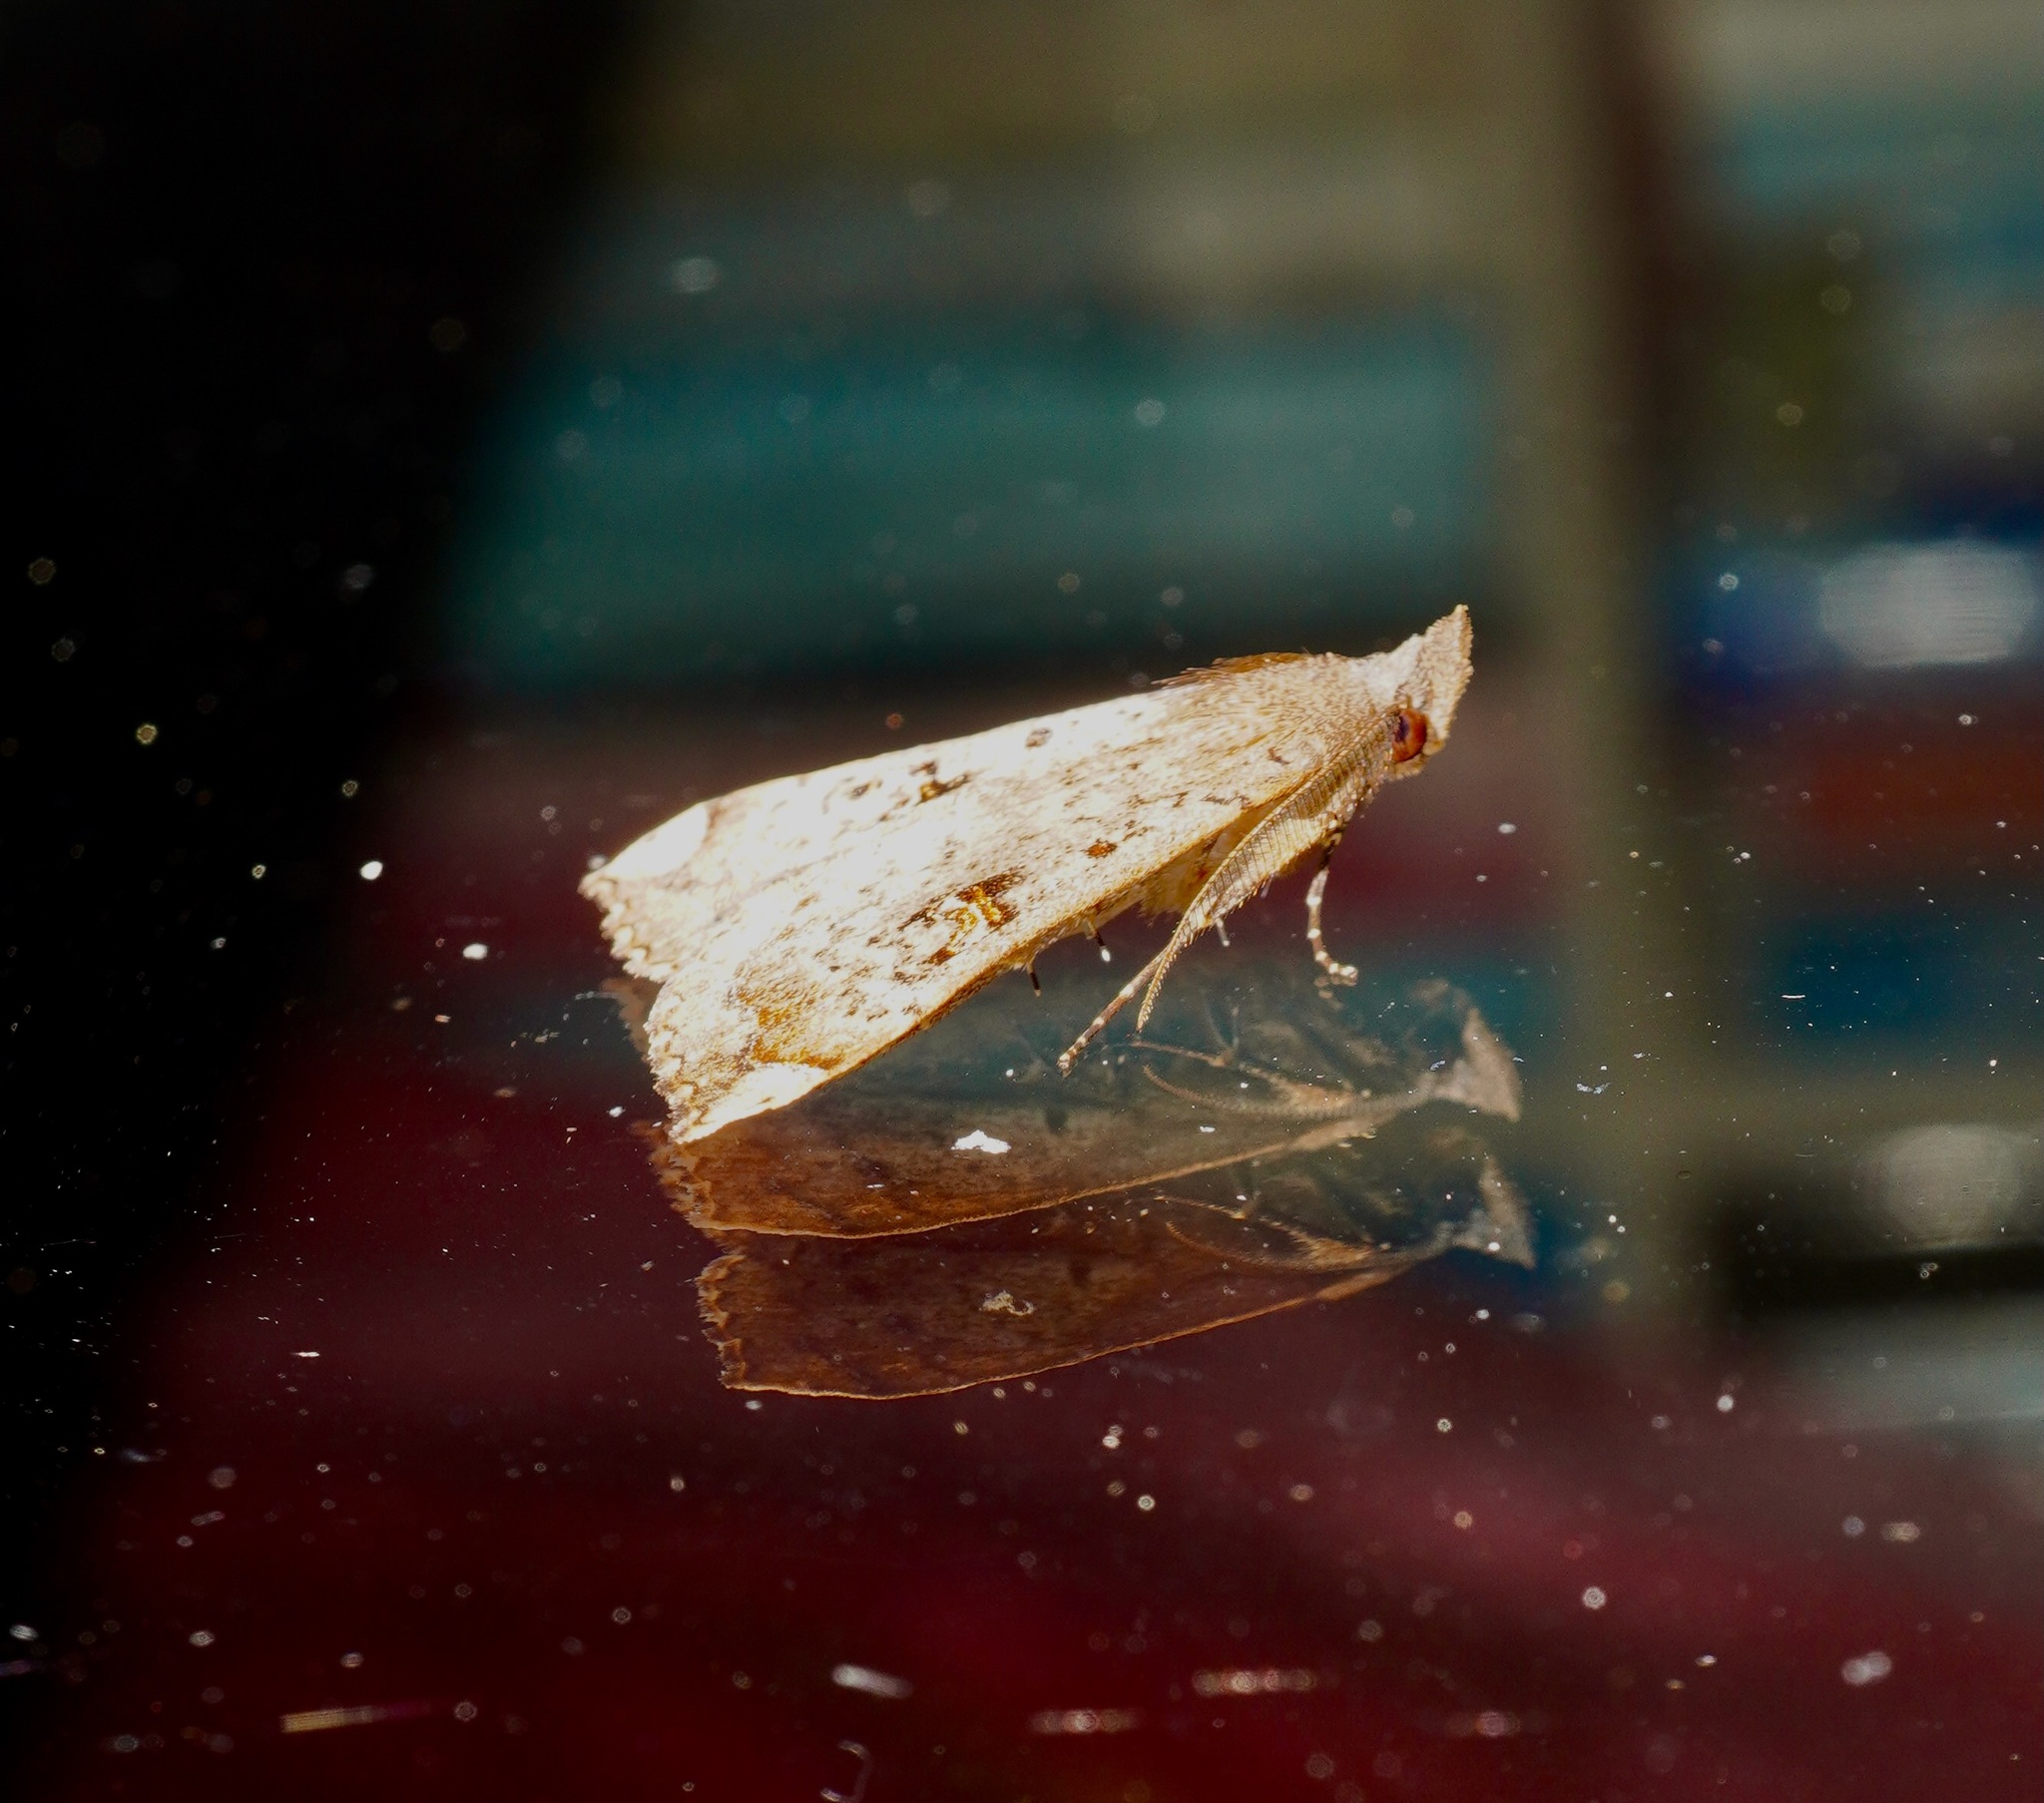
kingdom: Animalia
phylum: Arthropoda
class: Insecta
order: Lepidoptera
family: Erebidae
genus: Rhapsa
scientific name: Rhapsa scotosialis
